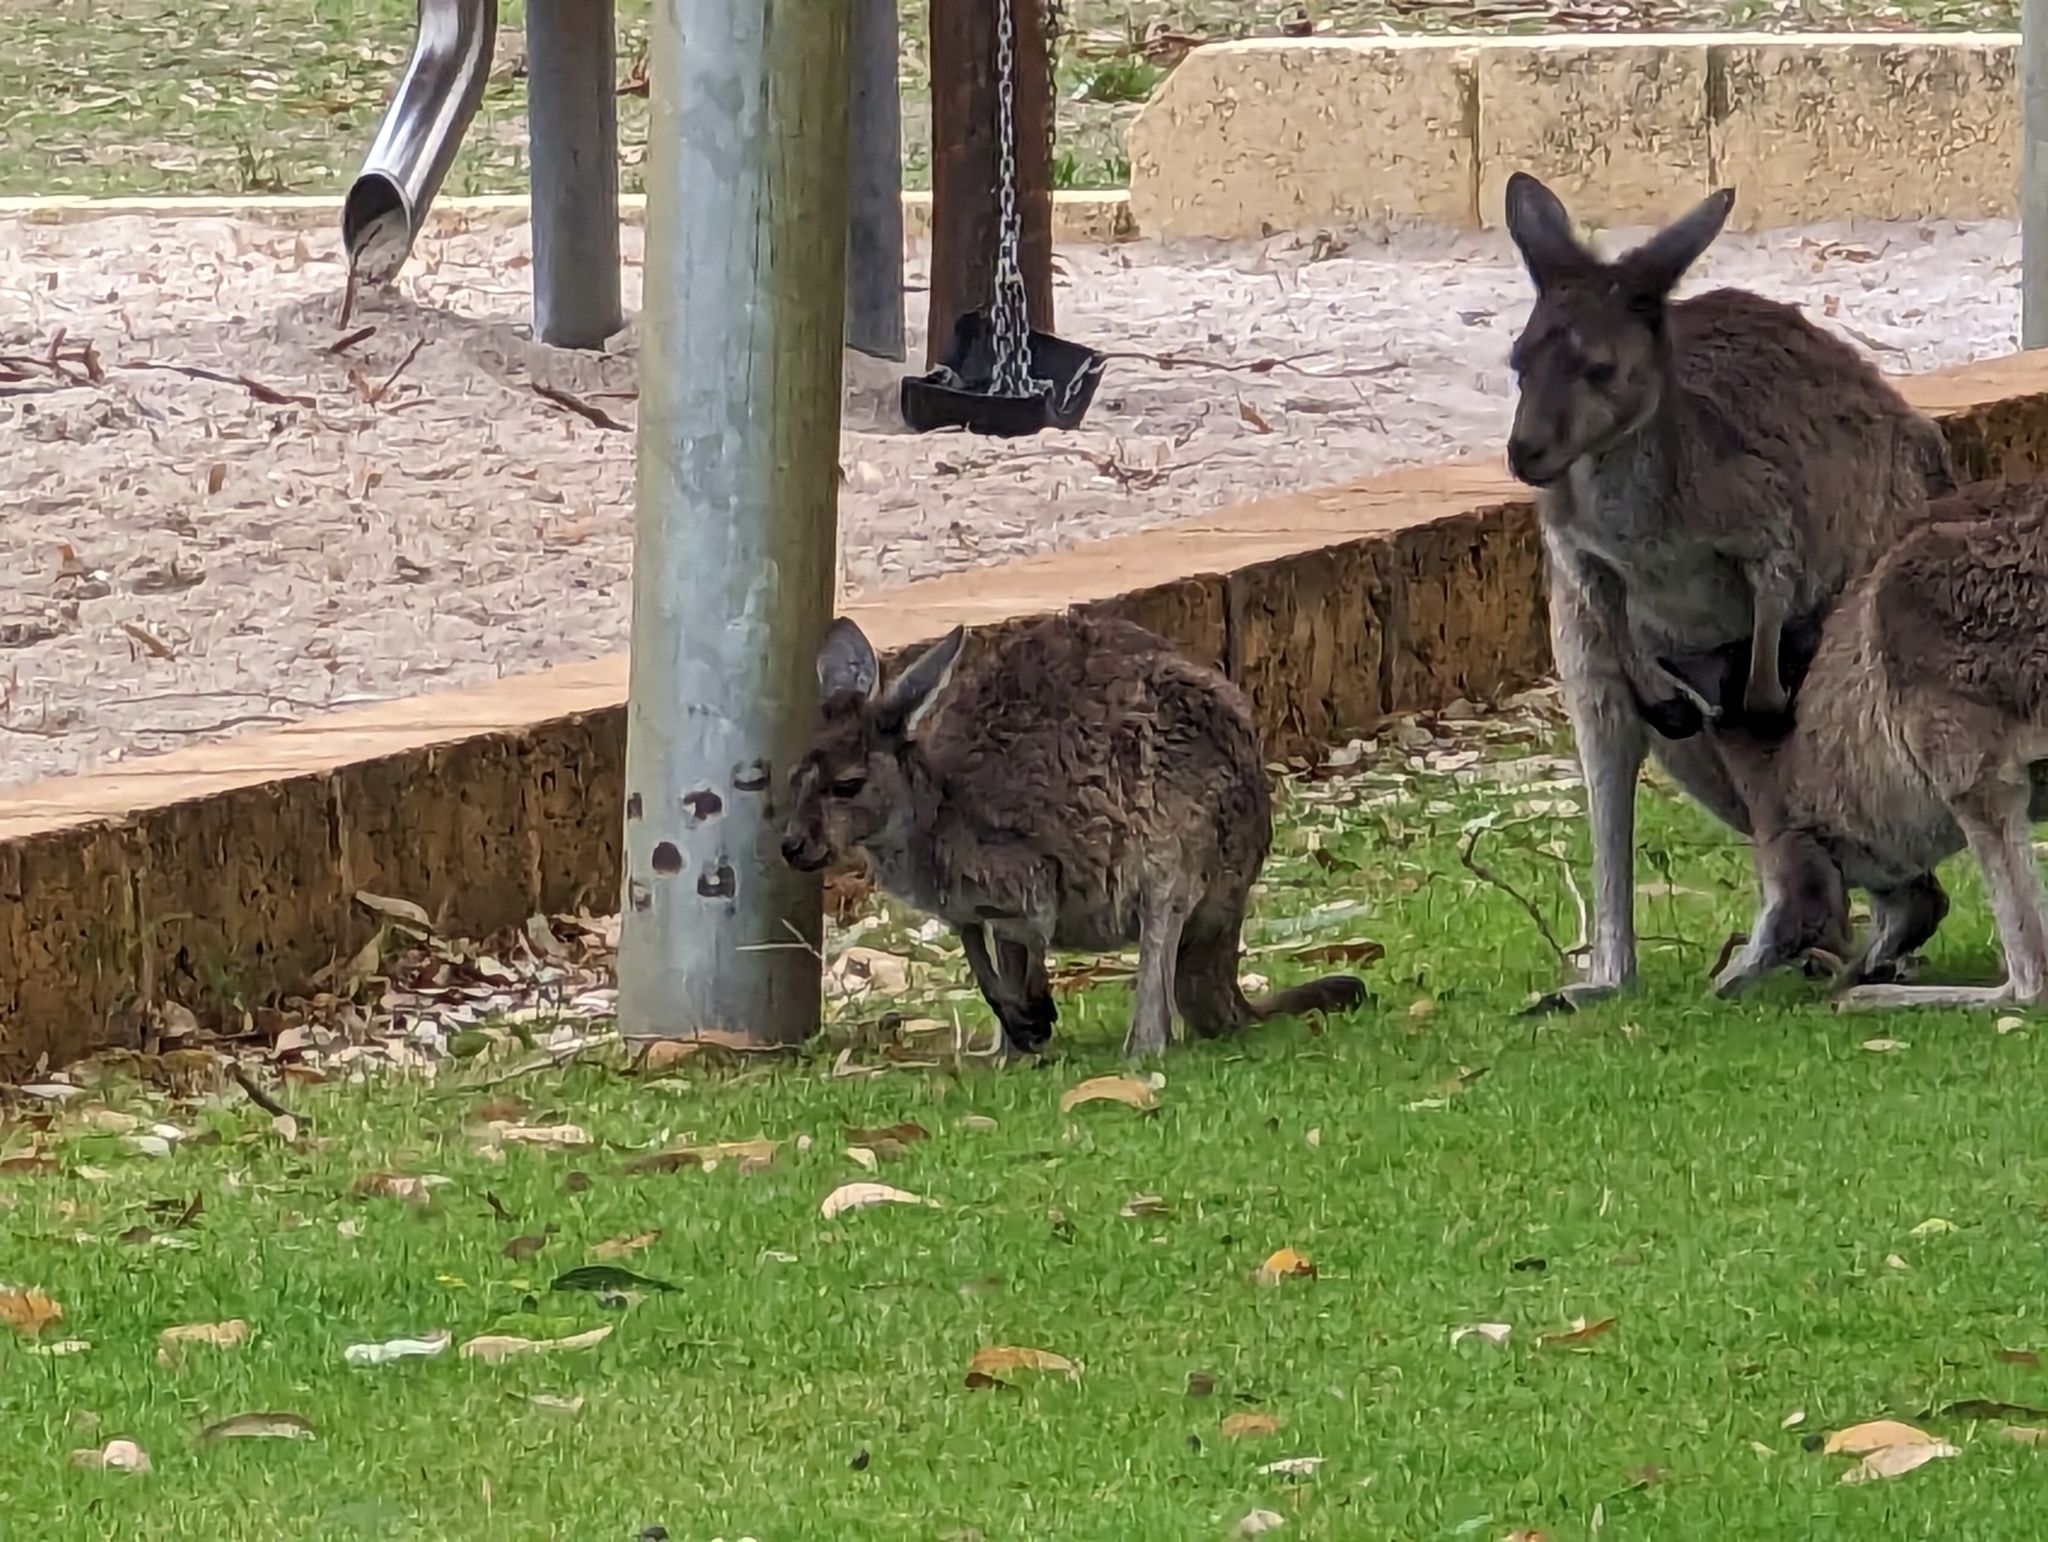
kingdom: Animalia
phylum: Chordata
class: Mammalia
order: Diprotodontia
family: Macropodidae
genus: Macropus
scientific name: Macropus fuliginosus
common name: Western grey kangaroo
